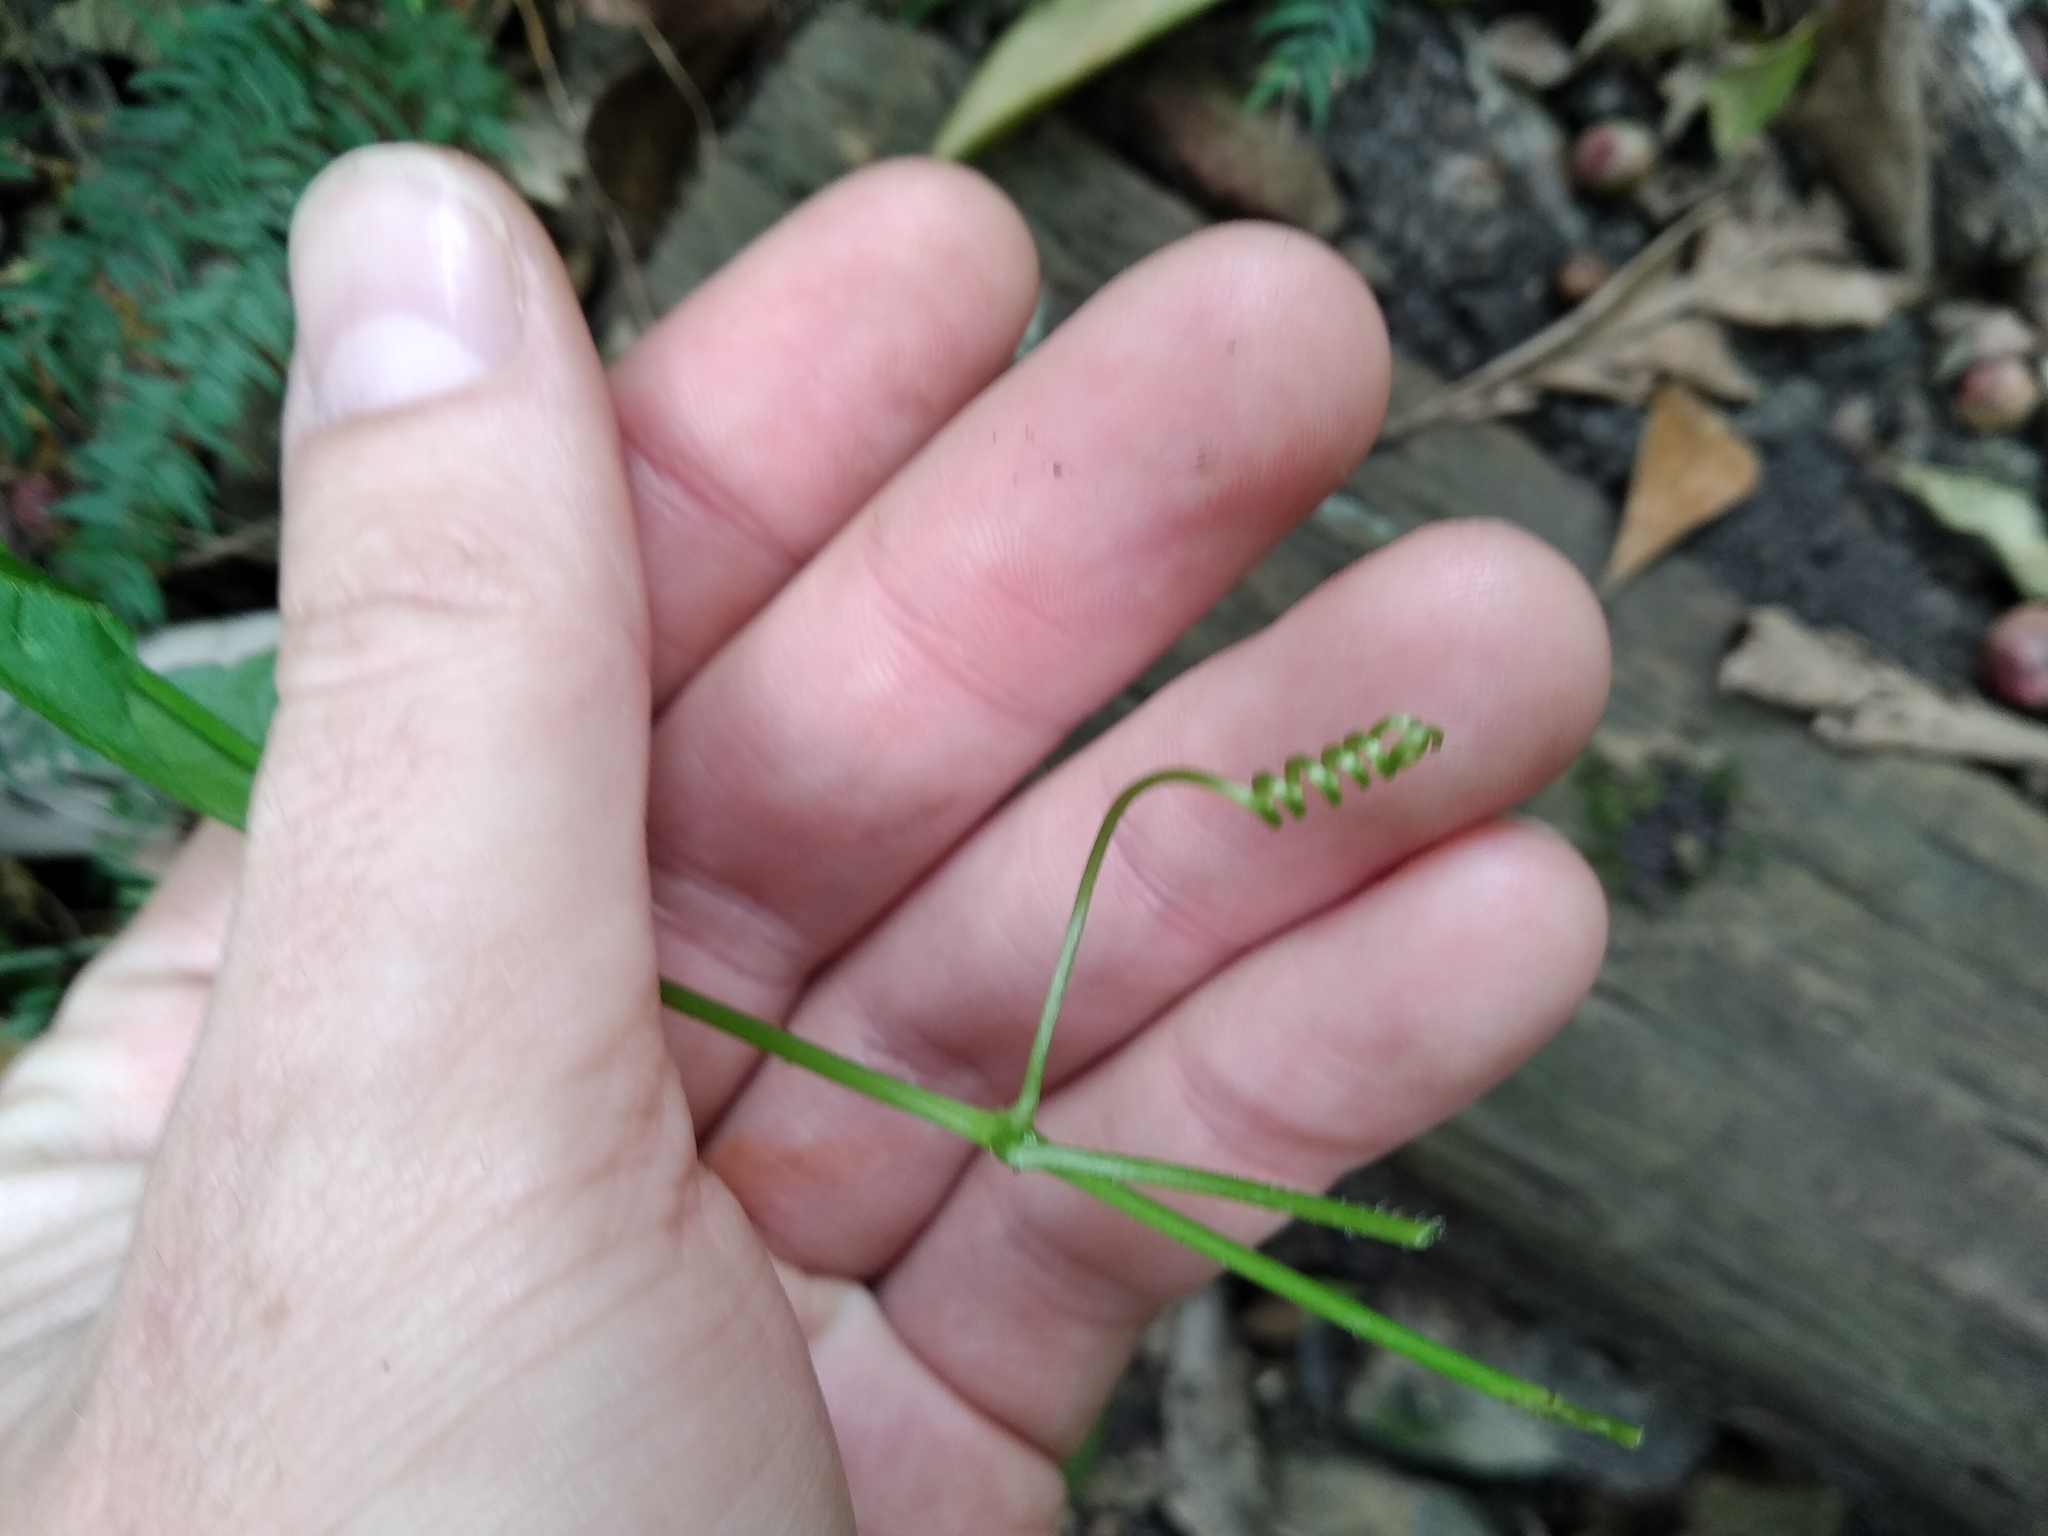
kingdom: Plantae
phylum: Tracheophyta
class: Magnoliopsida
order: Cucurbitales
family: Cucurbitaceae
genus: Zehneria
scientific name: Zehneria scabra
